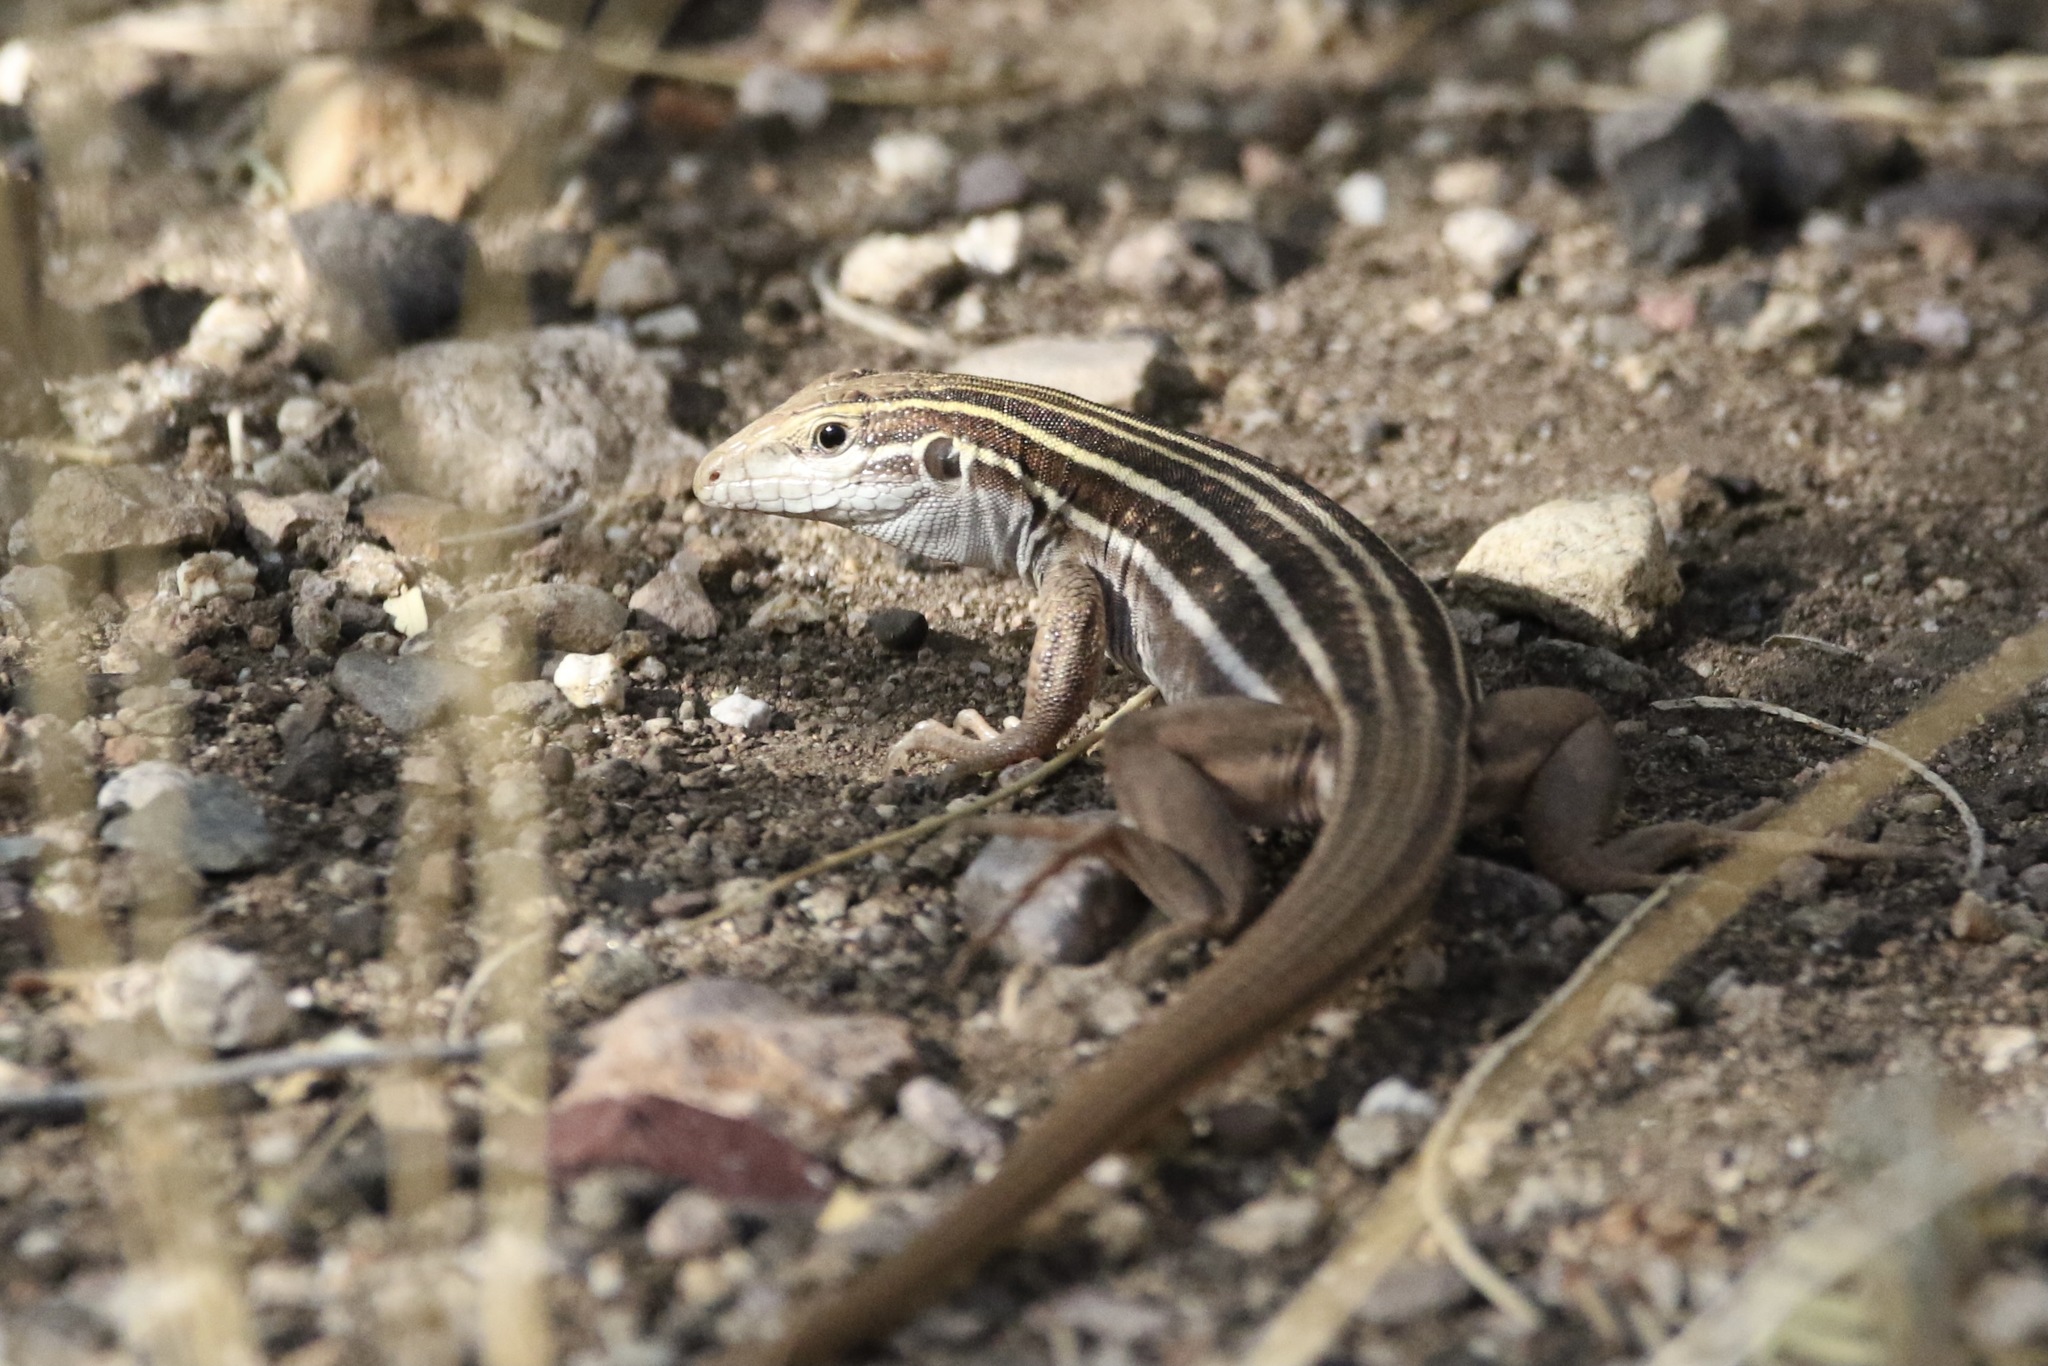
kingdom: Animalia
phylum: Chordata
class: Squamata
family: Teiidae
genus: Aspidoscelis
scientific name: Aspidoscelis sonorae
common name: Sonoran spotted whiptail
